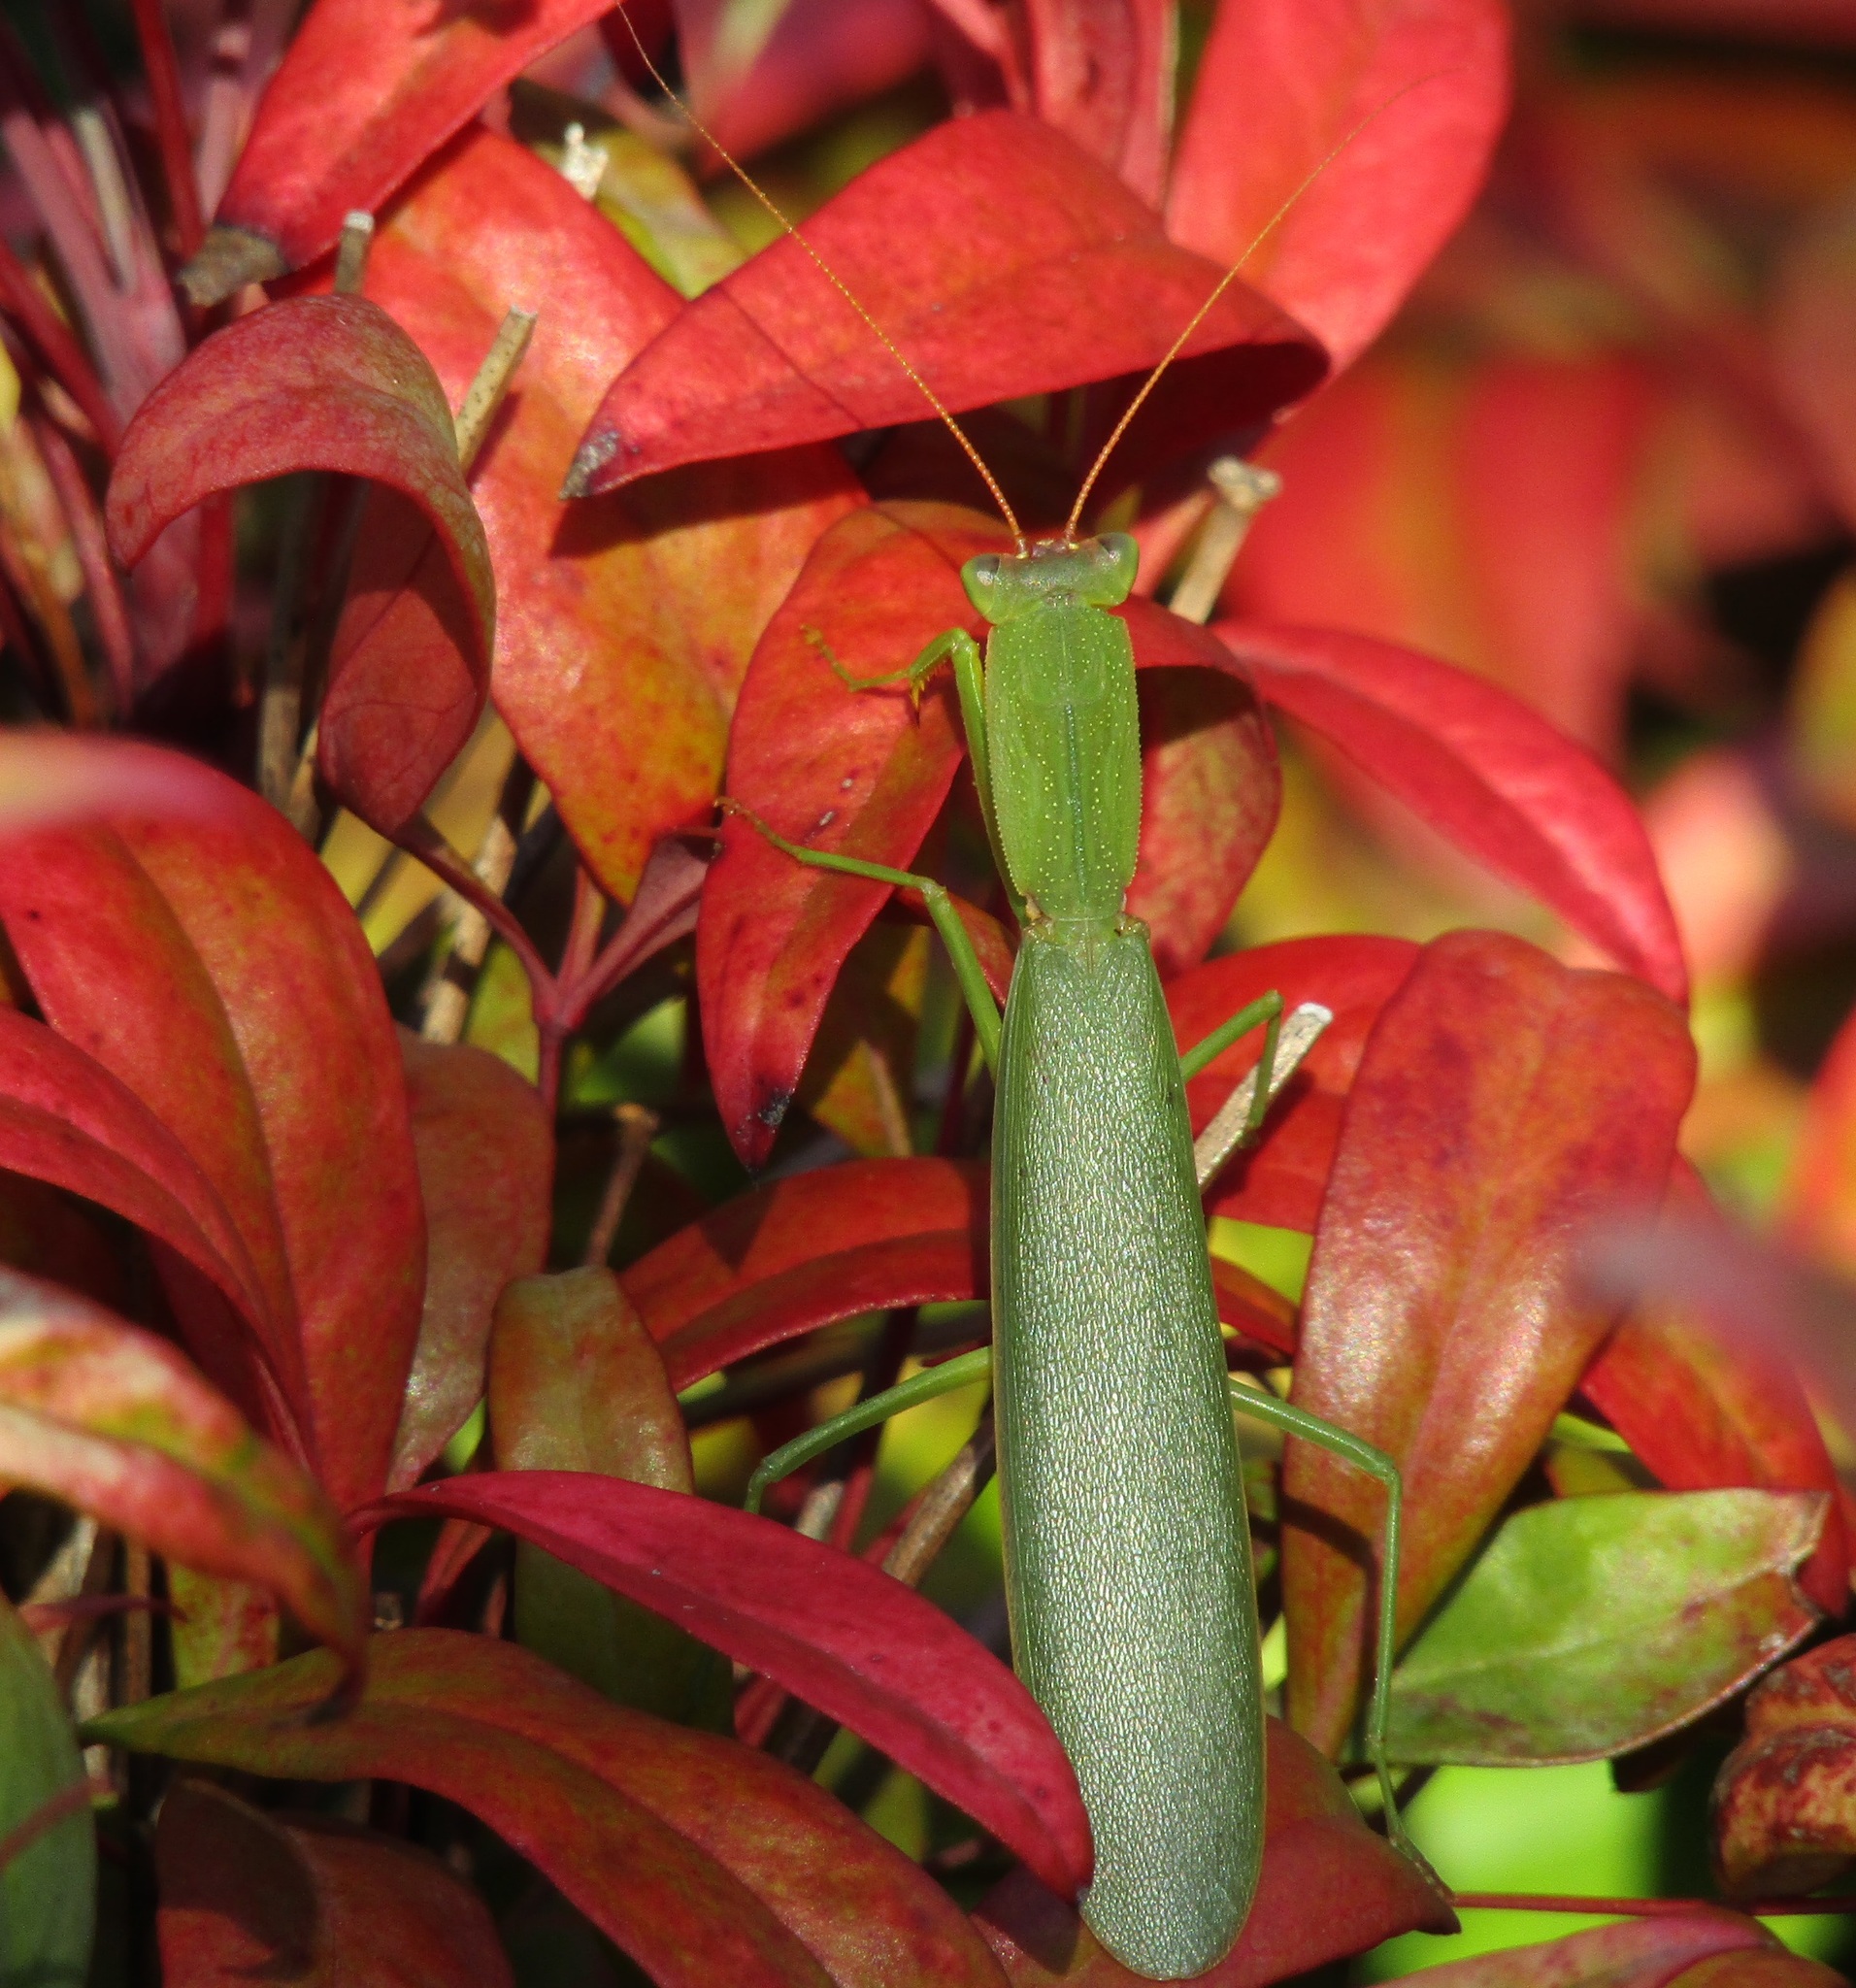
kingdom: Animalia
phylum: Arthropoda
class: Insecta
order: Mantodea
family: Mantidae
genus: Orthodera
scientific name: Orthodera novaezealandiae
